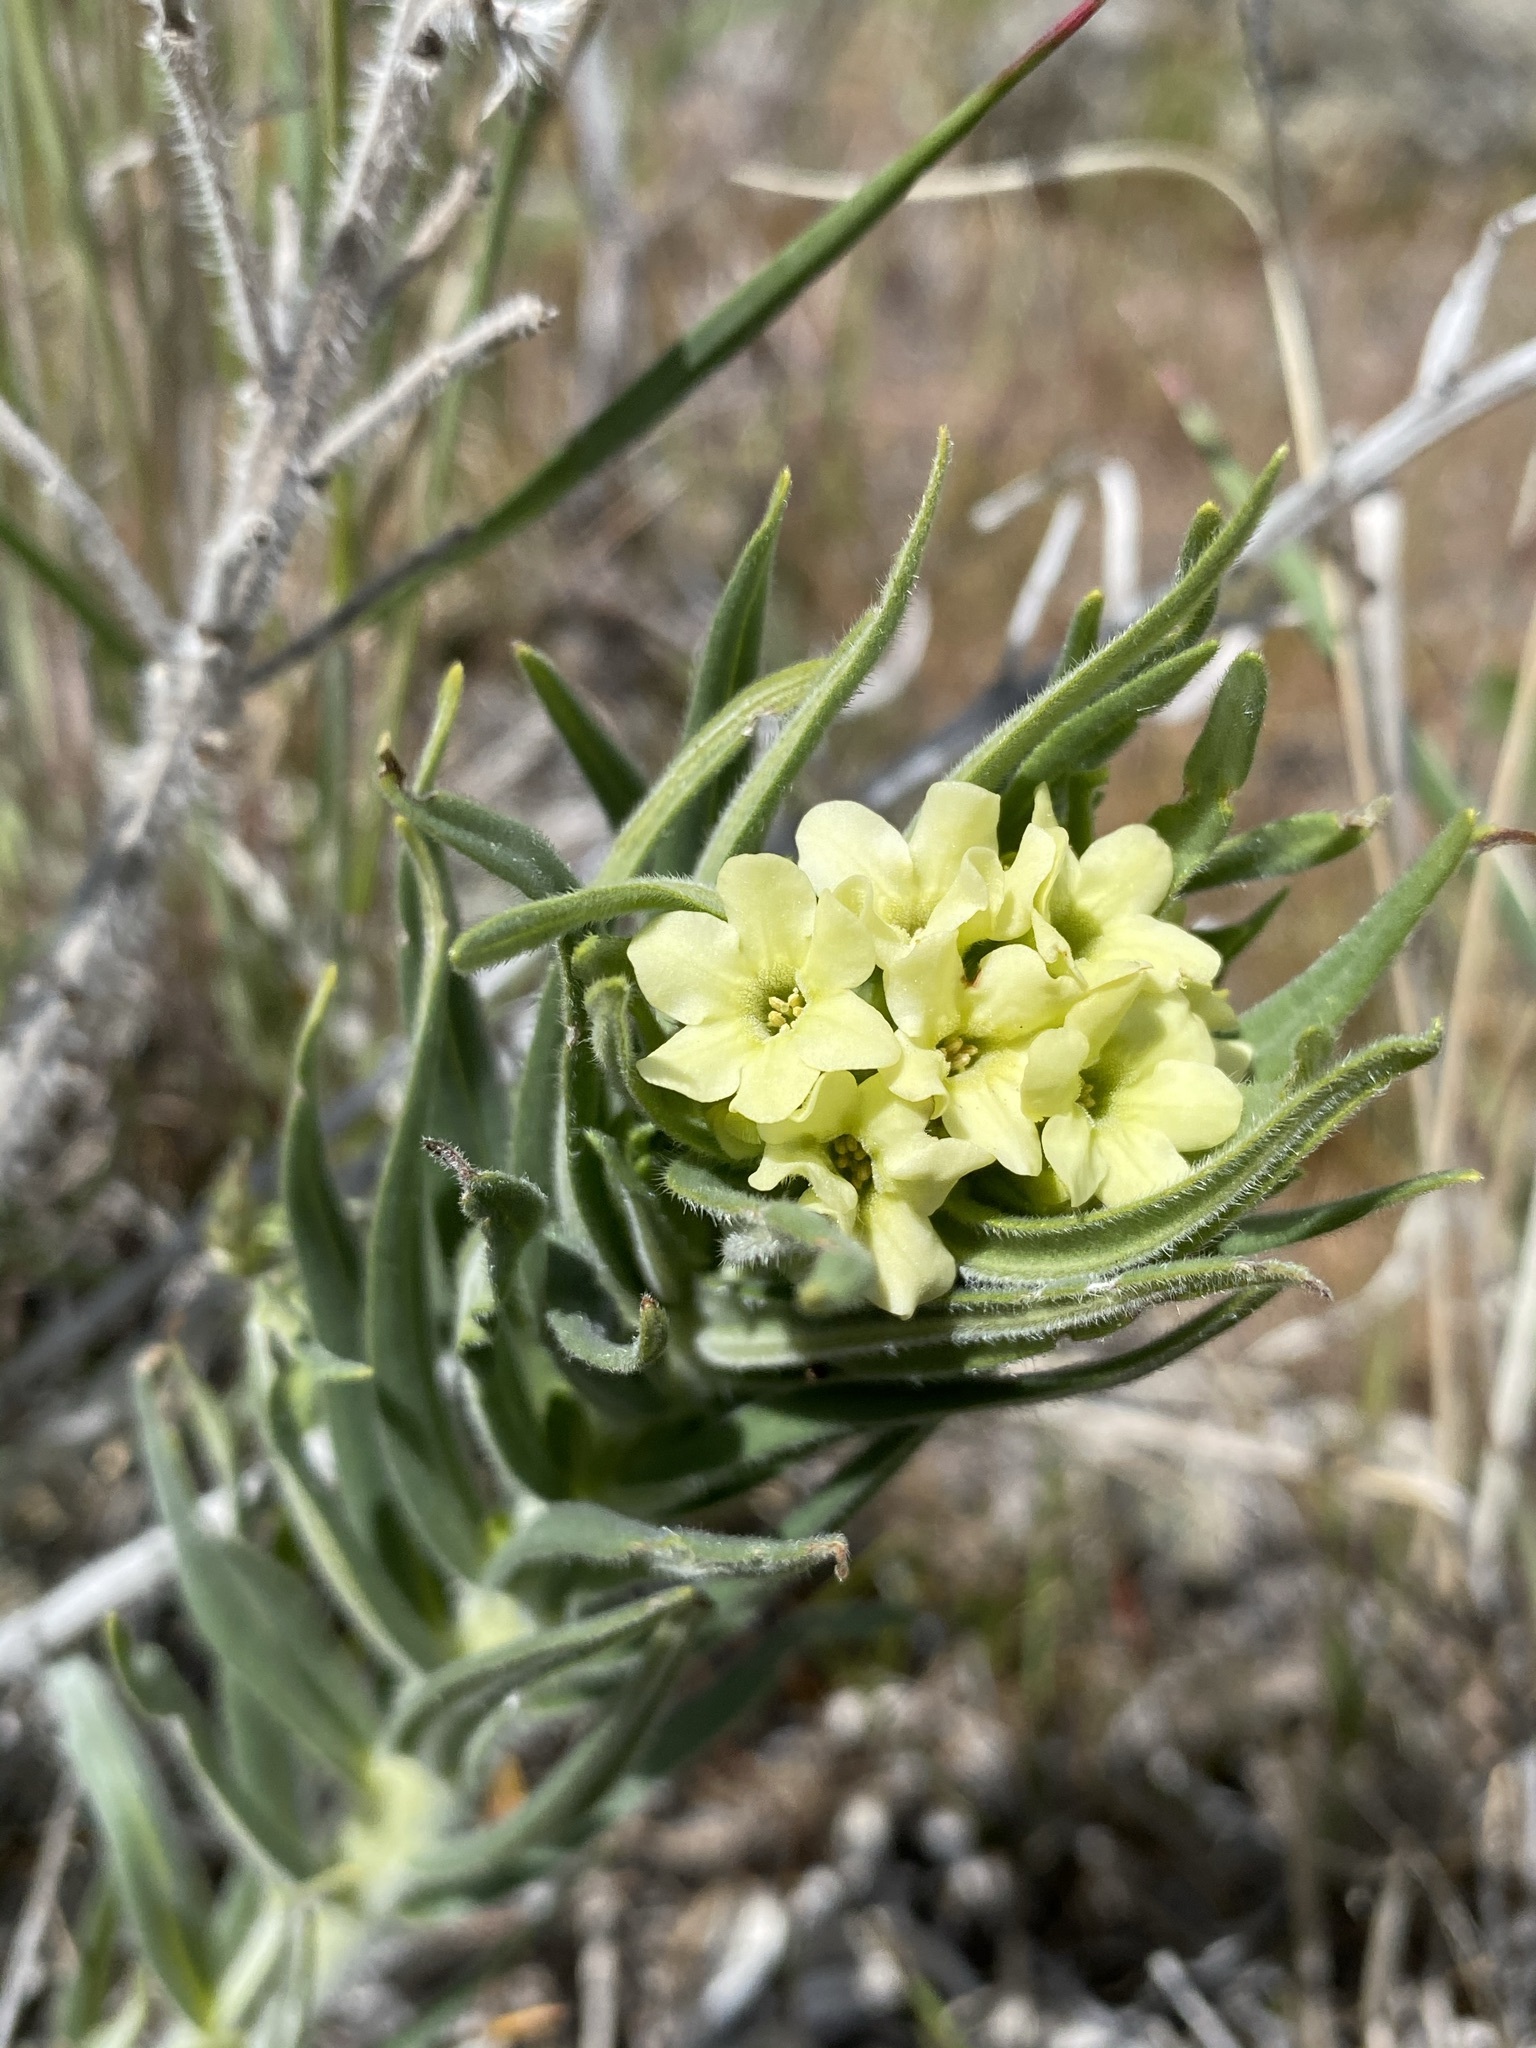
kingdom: Plantae
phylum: Tracheophyta
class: Magnoliopsida
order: Boraginales
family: Boraginaceae
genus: Lithospermum
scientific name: Lithospermum ruderale
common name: Western gromwell
